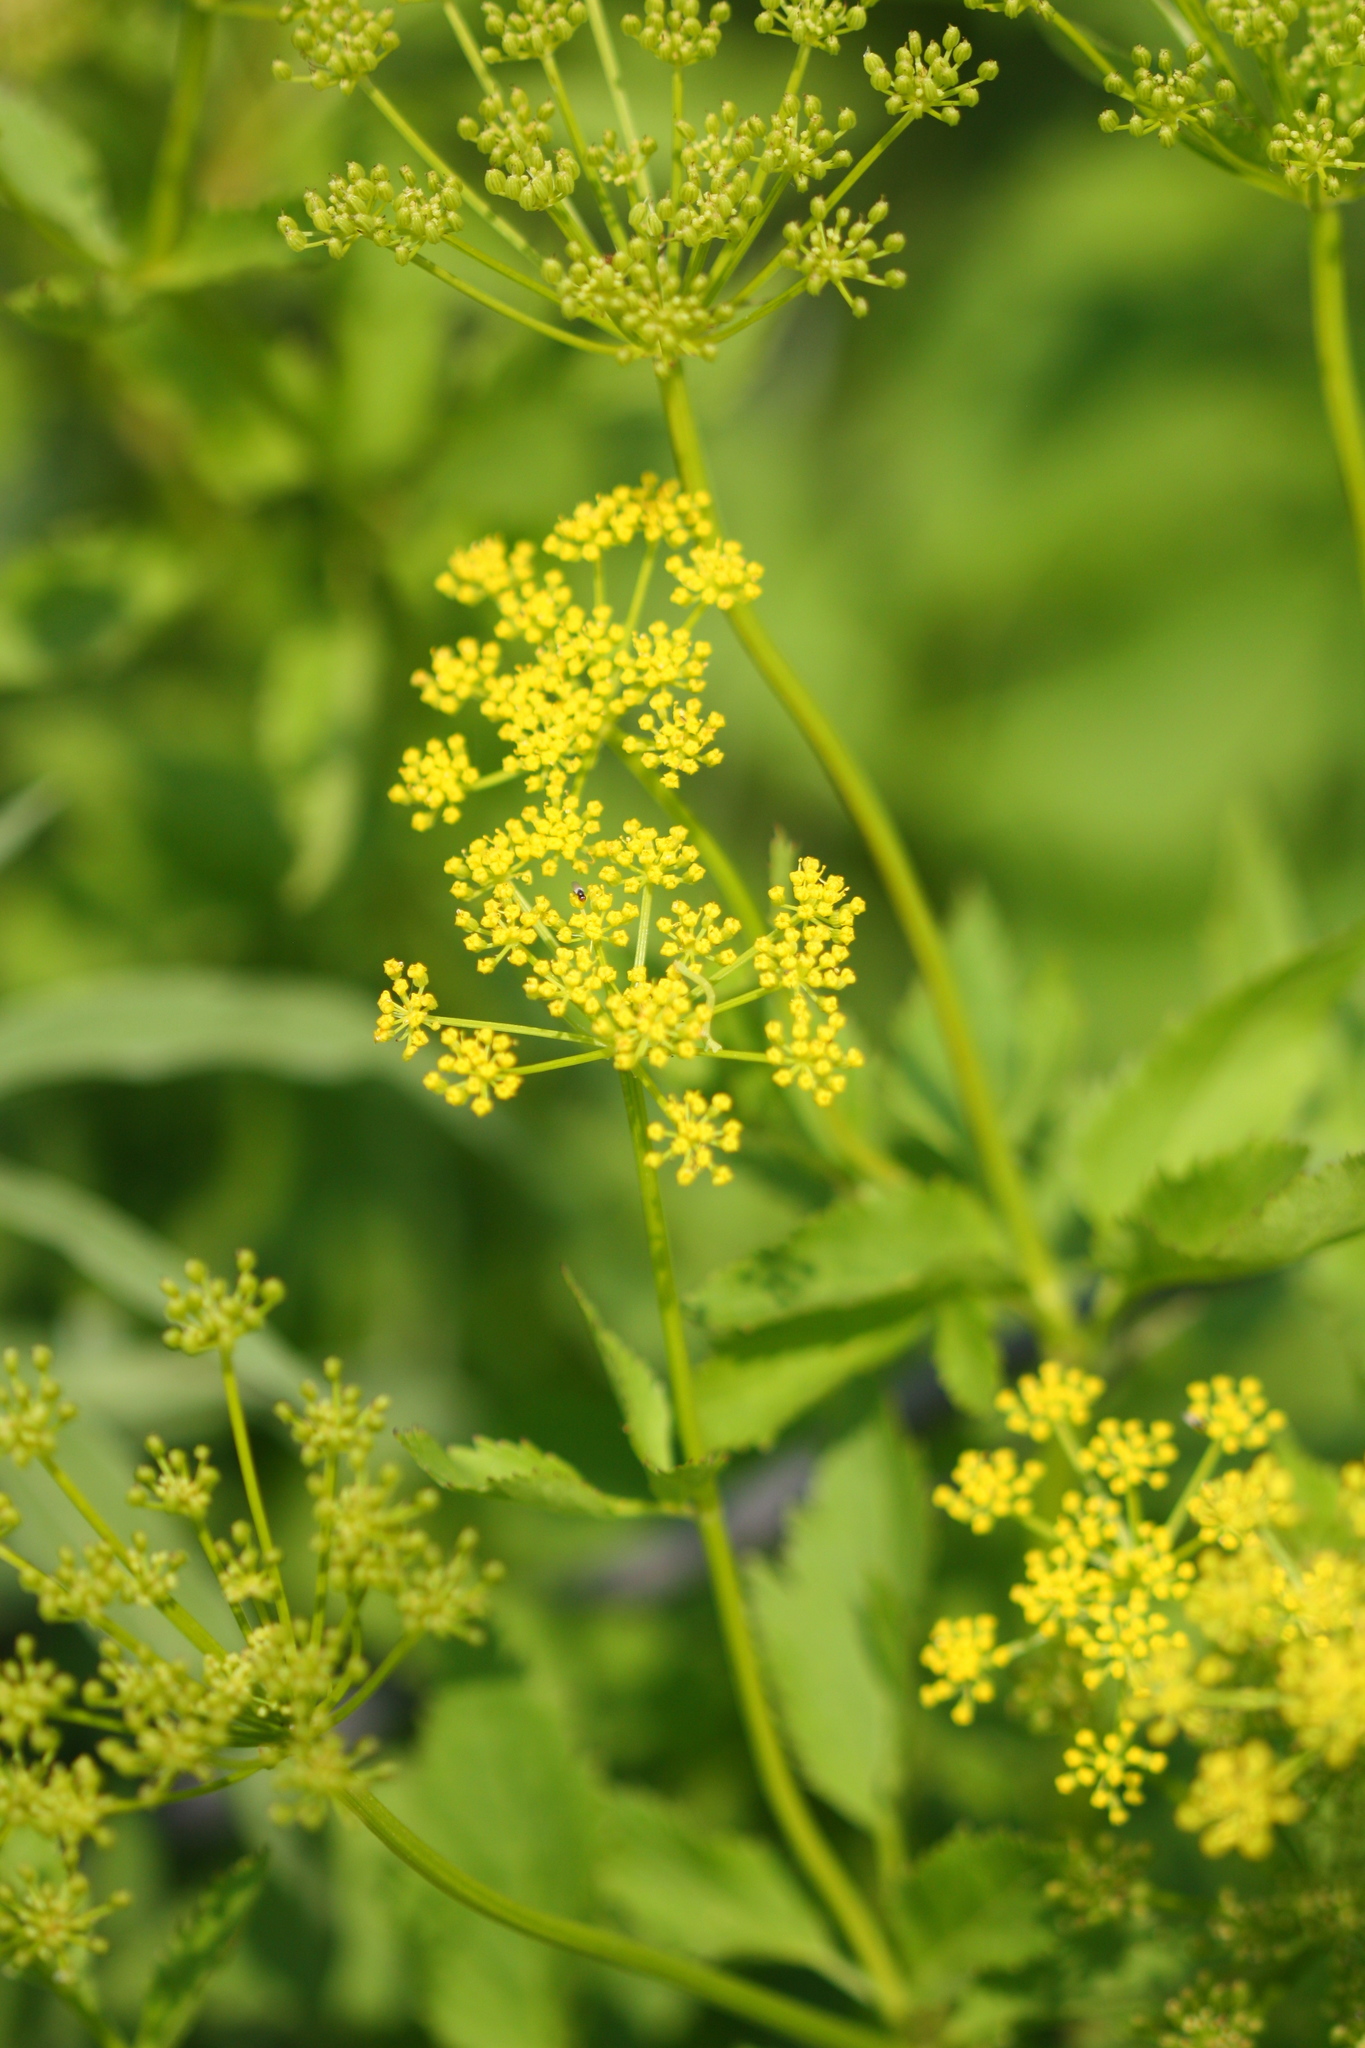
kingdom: Plantae
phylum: Tracheophyta
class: Magnoliopsida
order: Apiales
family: Apiaceae
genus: Zizia
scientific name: Zizia aurea
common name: Golden alexanders
